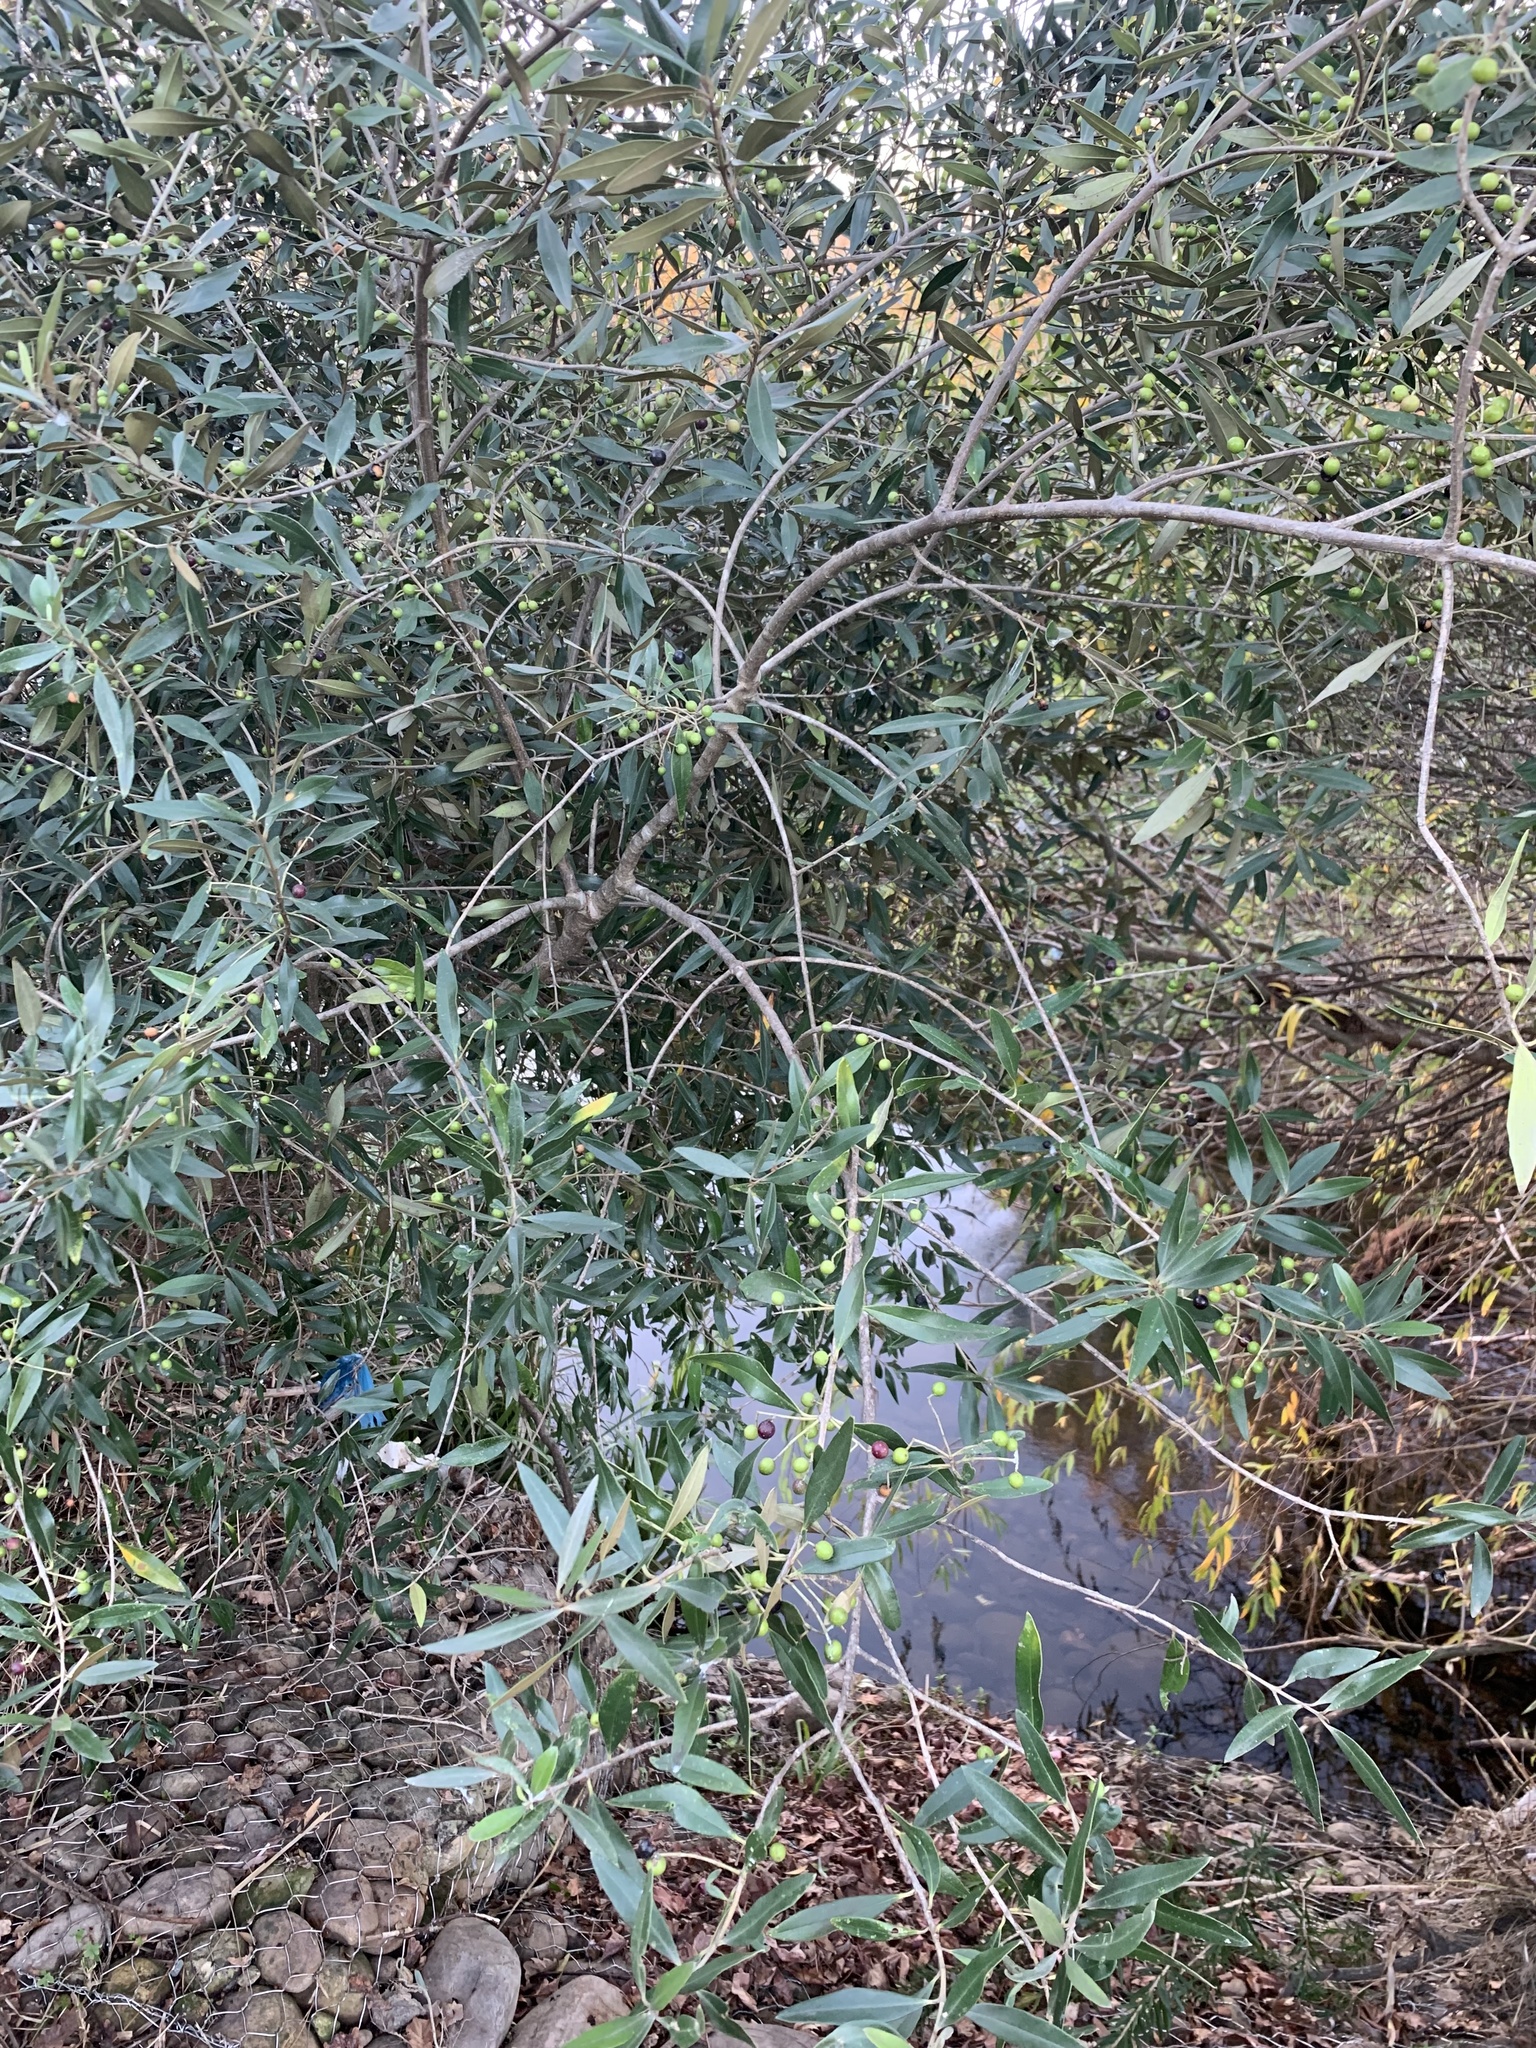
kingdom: Plantae
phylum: Tracheophyta
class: Magnoliopsida
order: Lamiales
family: Oleaceae
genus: Olea
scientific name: Olea europaea
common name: Olive
